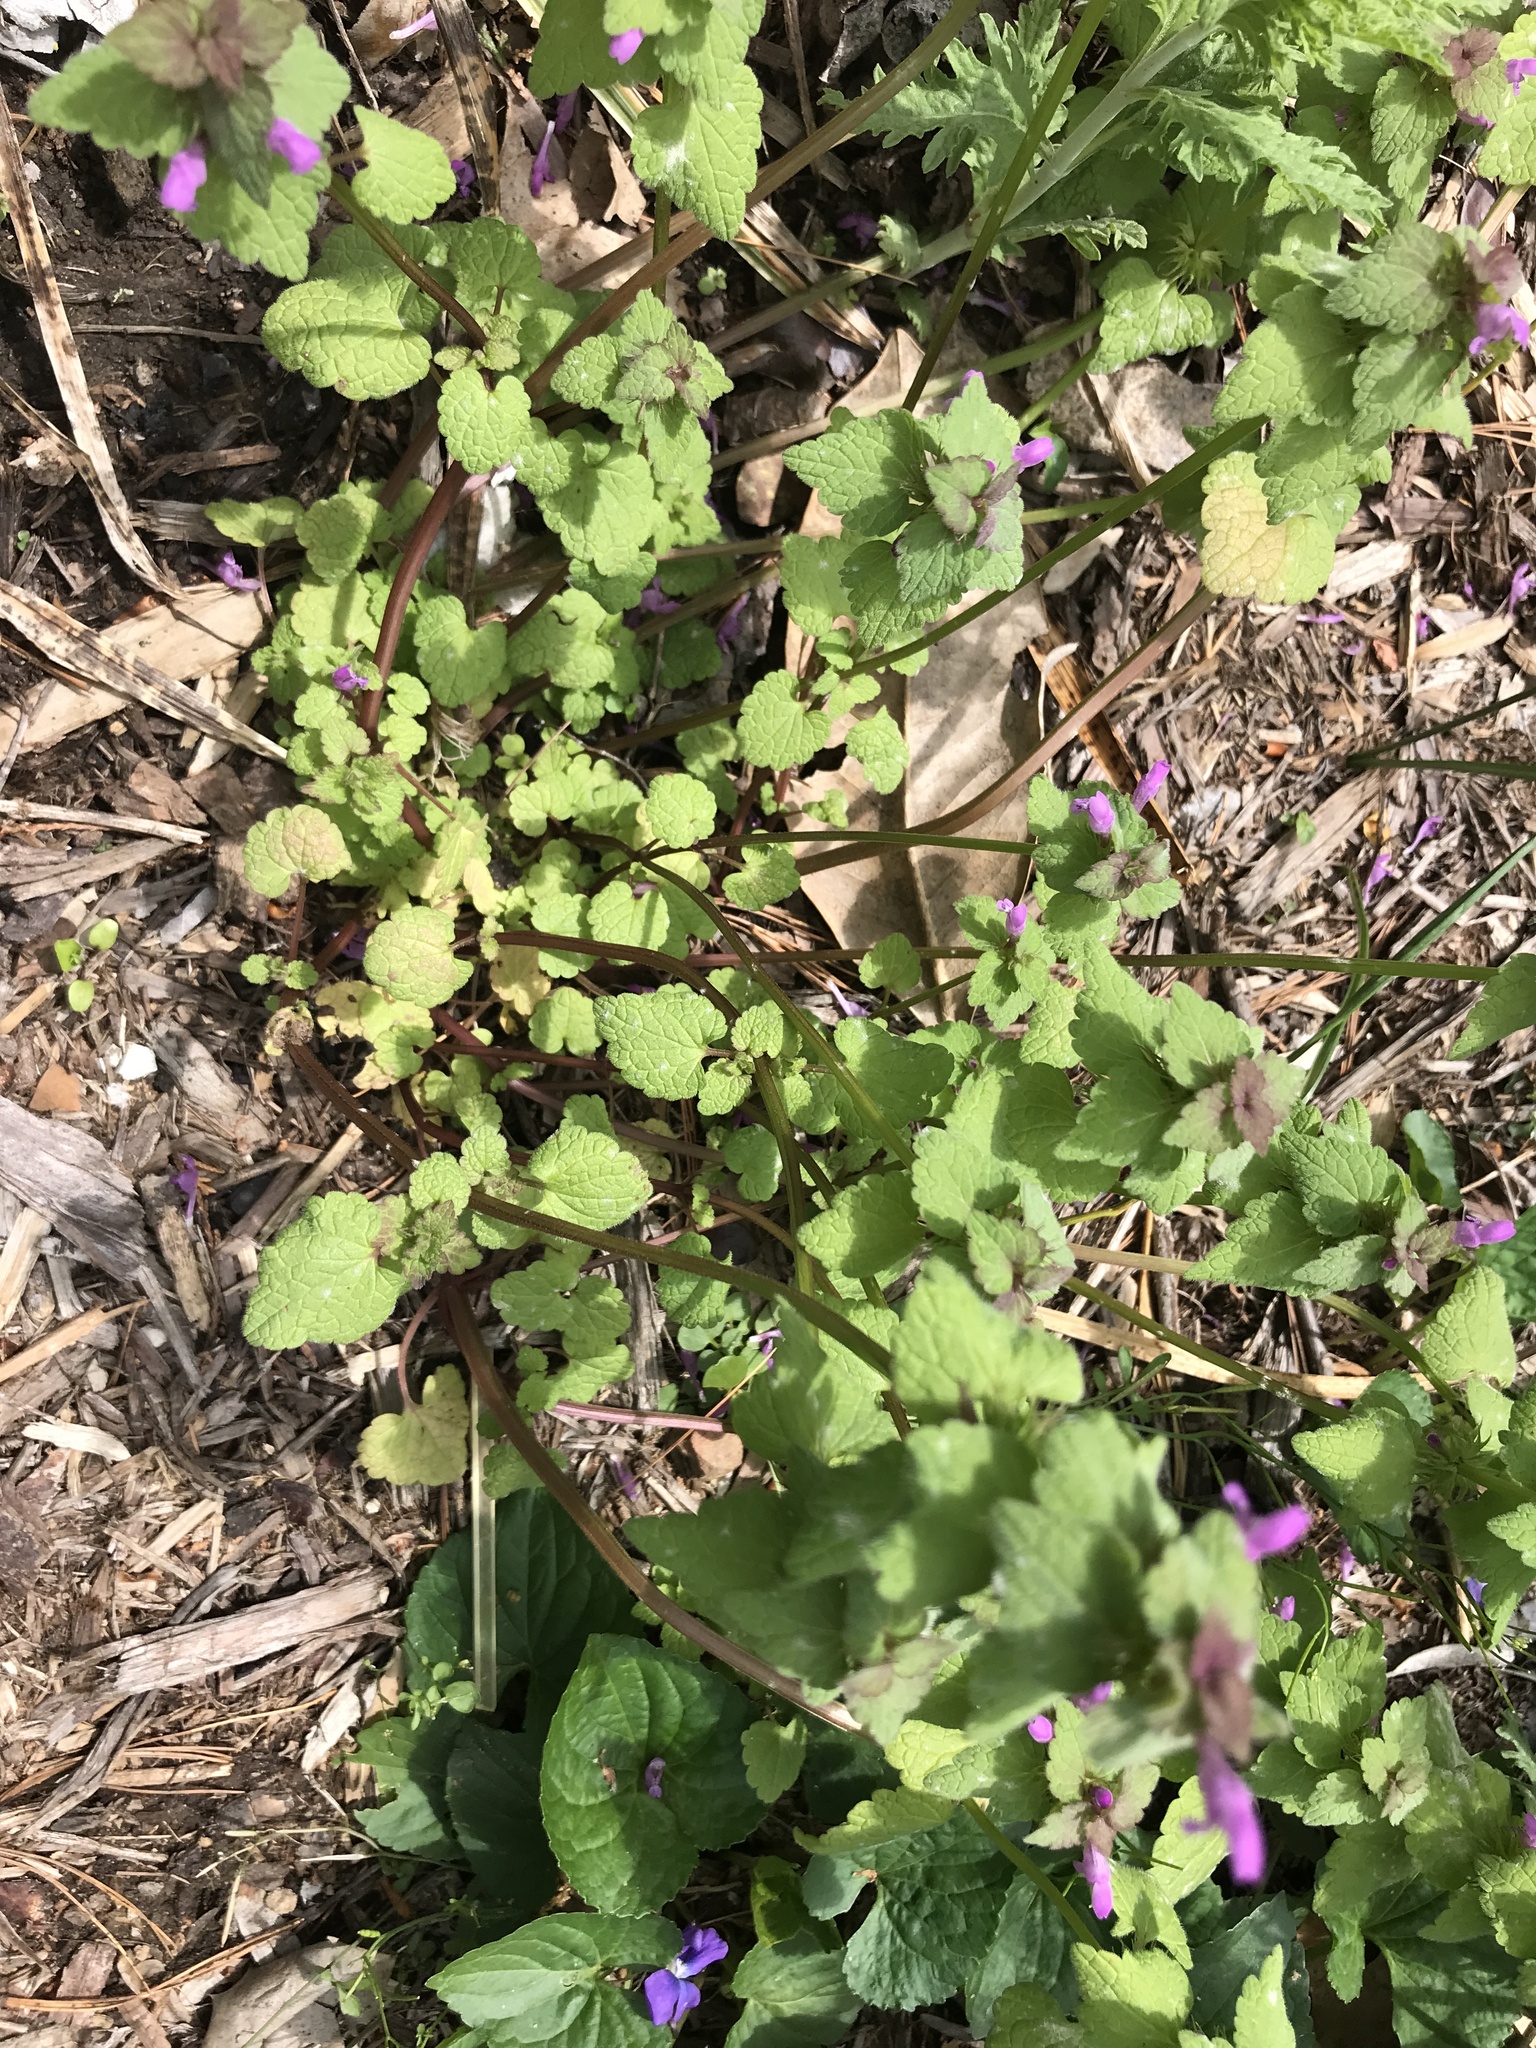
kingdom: Plantae
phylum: Tracheophyta
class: Magnoliopsida
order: Lamiales
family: Lamiaceae
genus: Lamium
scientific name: Lamium purpureum
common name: Red dead-nettle
